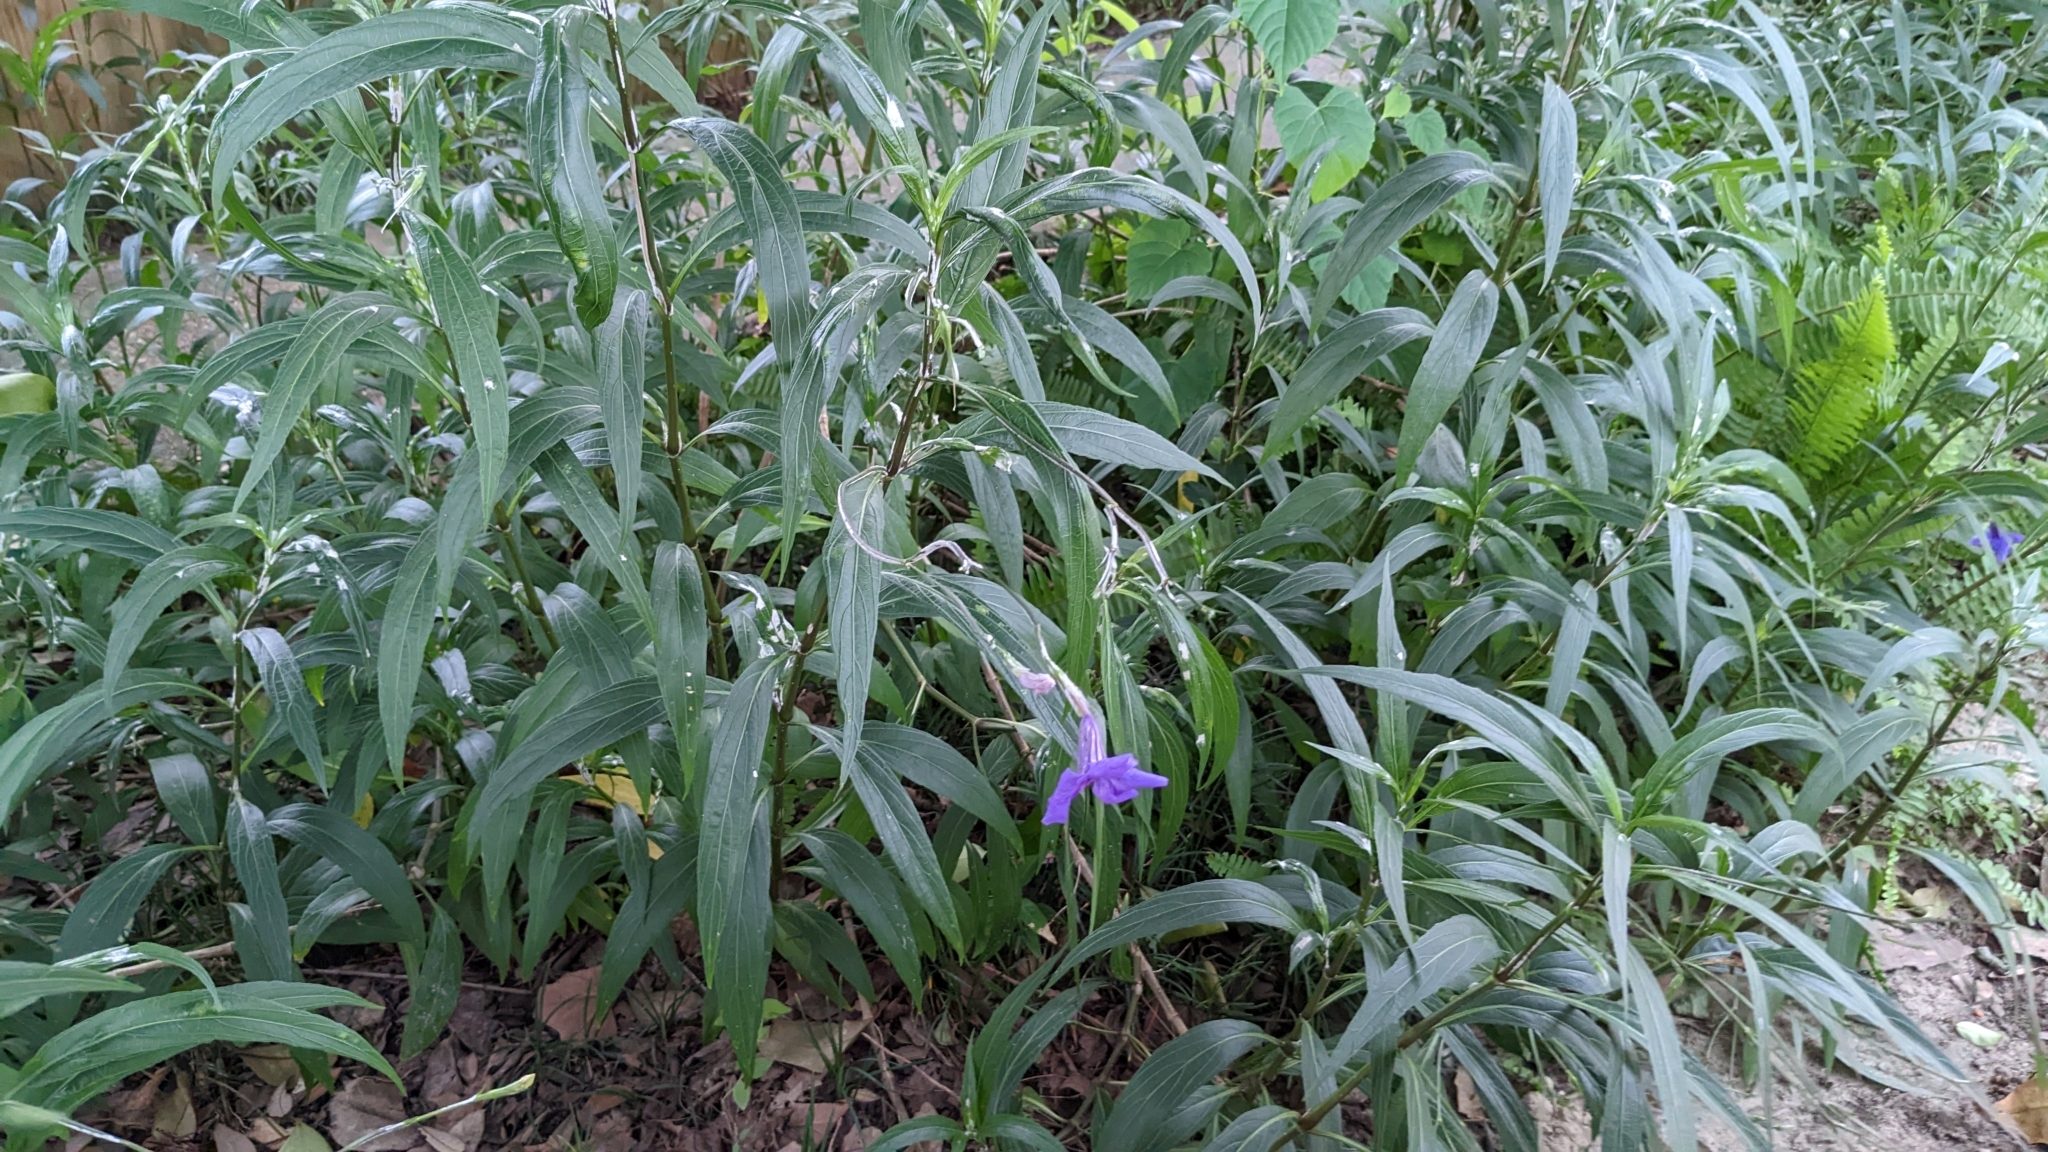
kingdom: Plantae
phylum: Tracheophyta
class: Magnoliopsida
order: Lamiales
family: Acanthaceae
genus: Ruellia
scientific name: Ruellia simplex
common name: Softseed wild petunia
